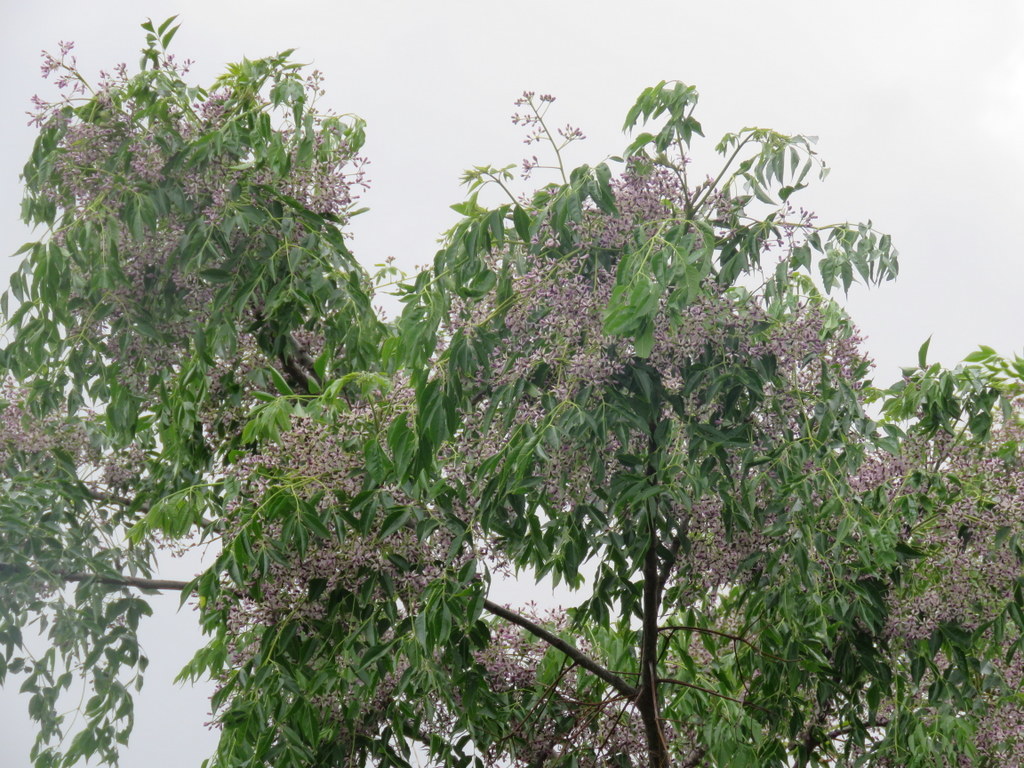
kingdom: Plantae
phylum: Tracheophyta
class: Magnoliopsida
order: Sapindales
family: Meliaceae
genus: Melia
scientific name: Melia azedarach
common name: Chinaberrytree
